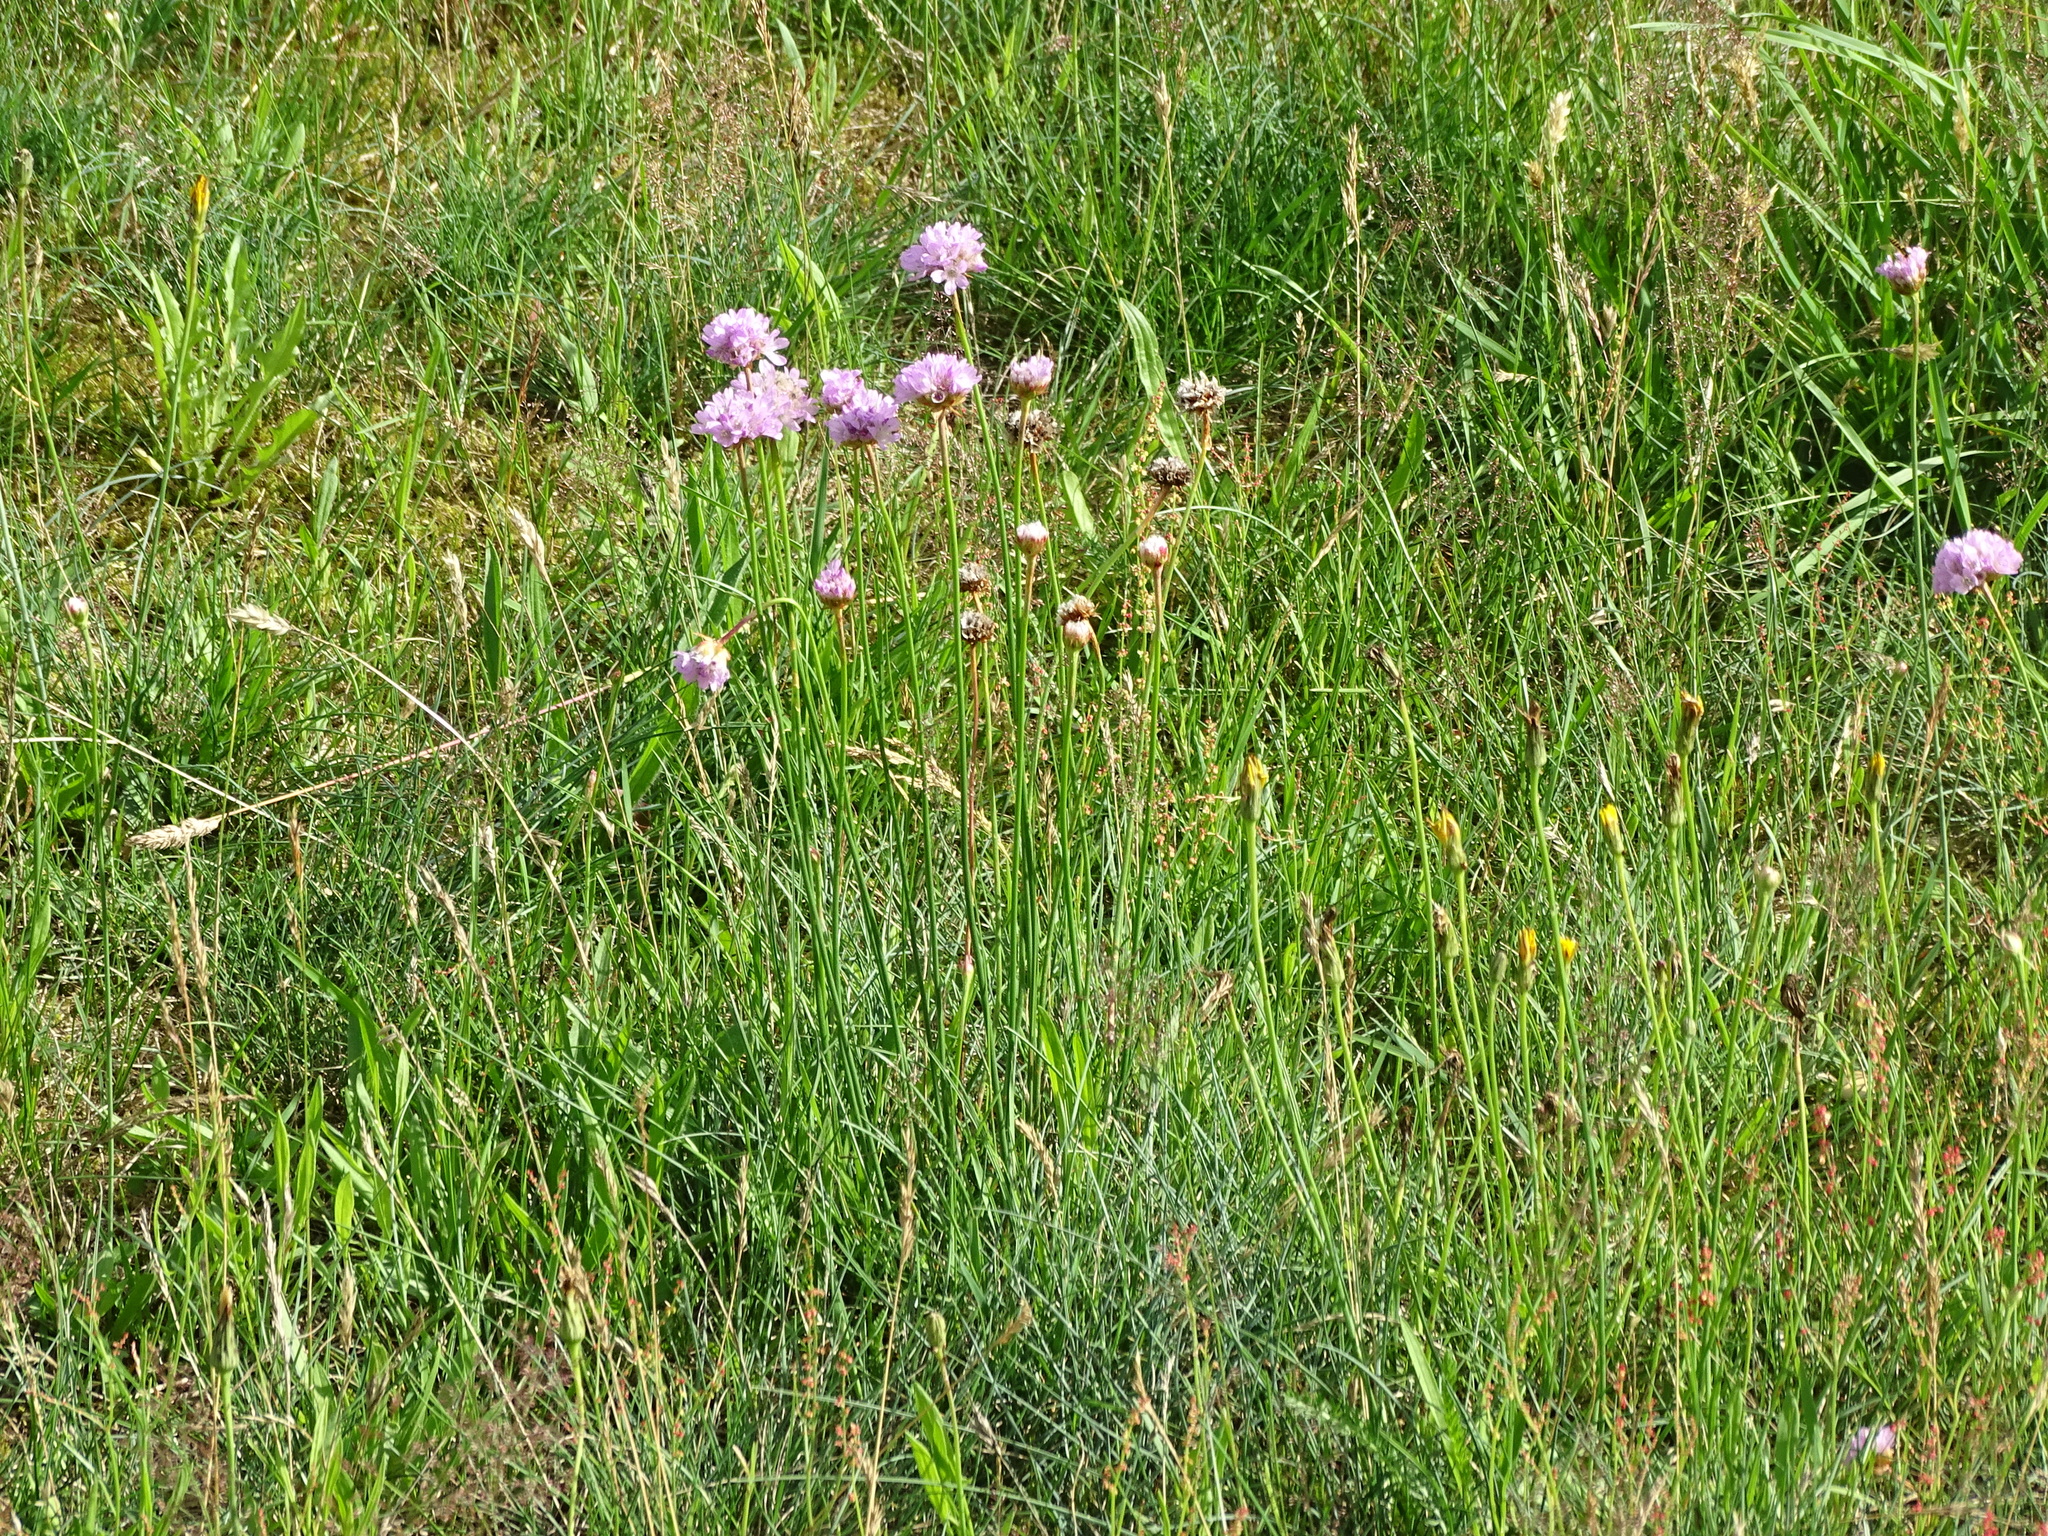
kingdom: Plantae
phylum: Tracheophyta
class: Magnoliopsida
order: Caryophyllales
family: Plumbaginaceae
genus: Armeria
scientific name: Armeria maritima
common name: Thrift
